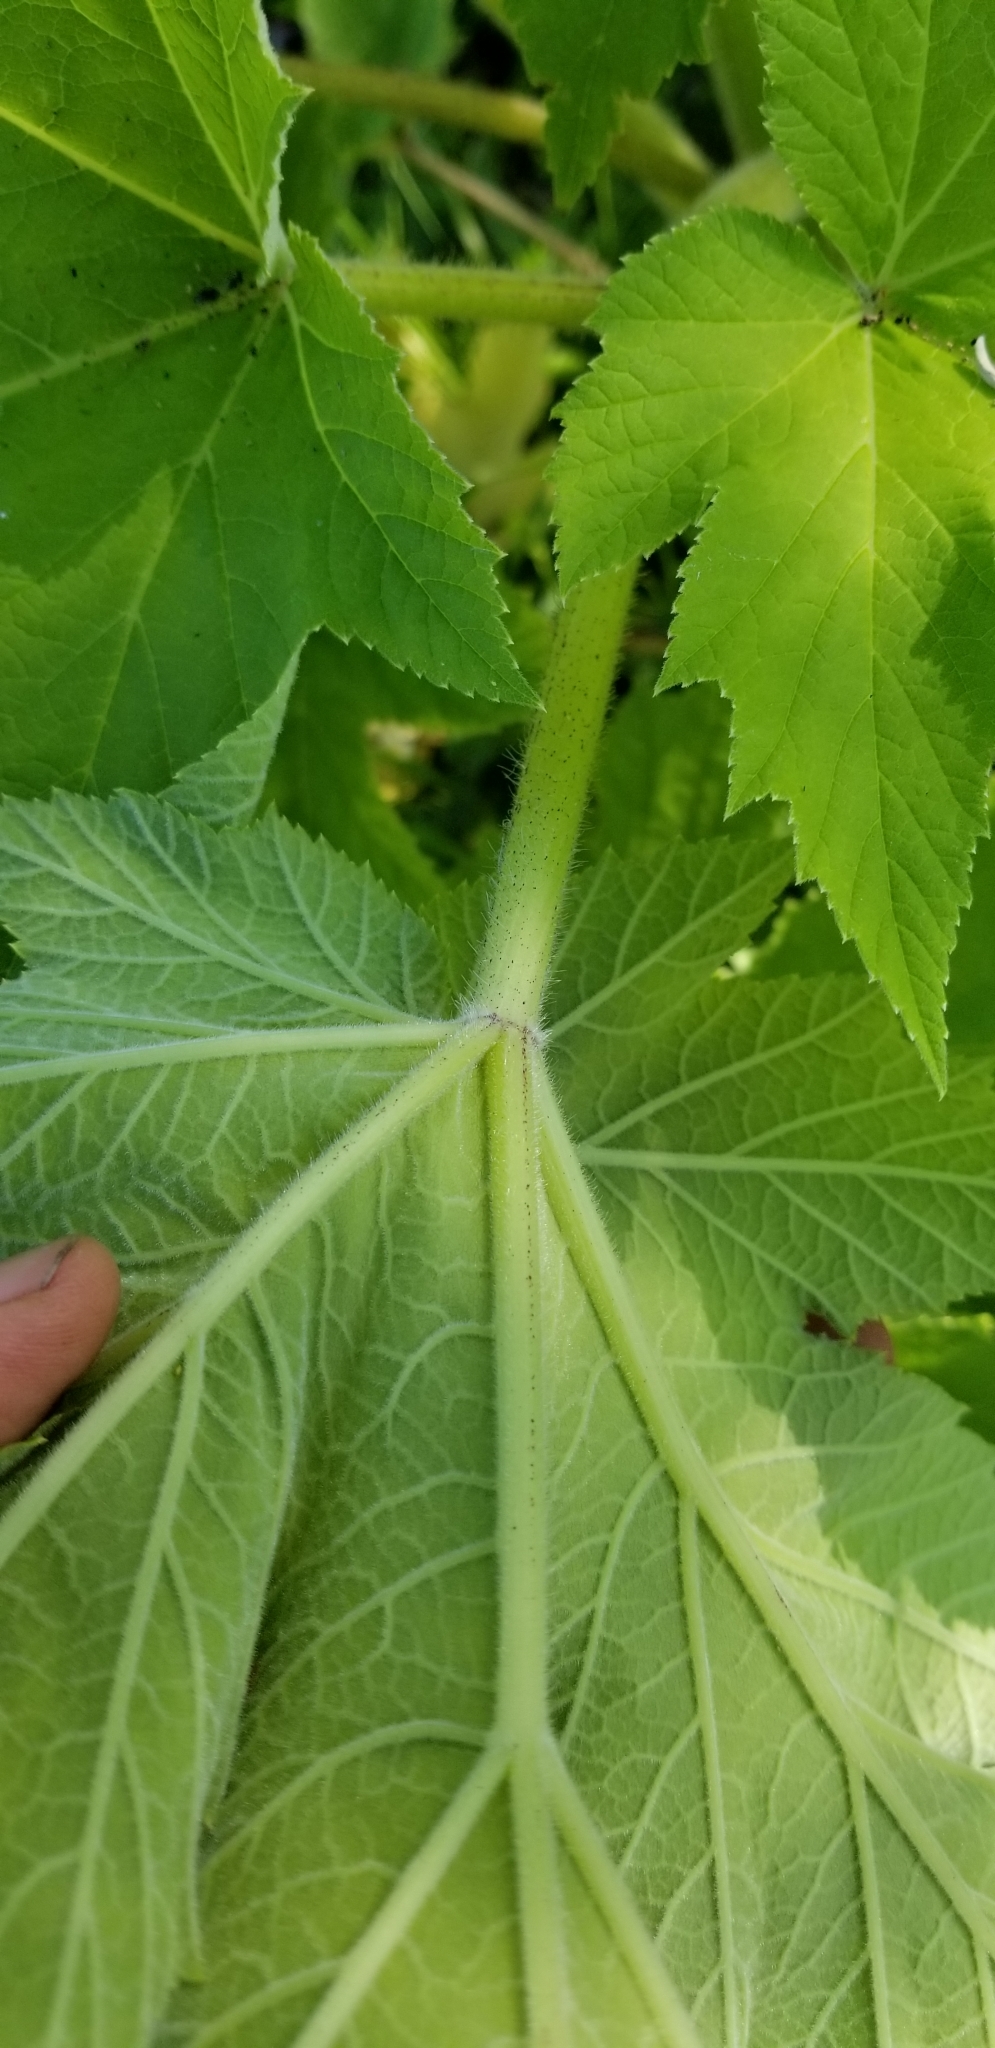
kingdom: Plantae
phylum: Tracheophyta
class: Magnoliopsida
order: Apiales
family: Apiaceae
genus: Heracleum
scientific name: Heracleum maximum
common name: American cow parsnip
